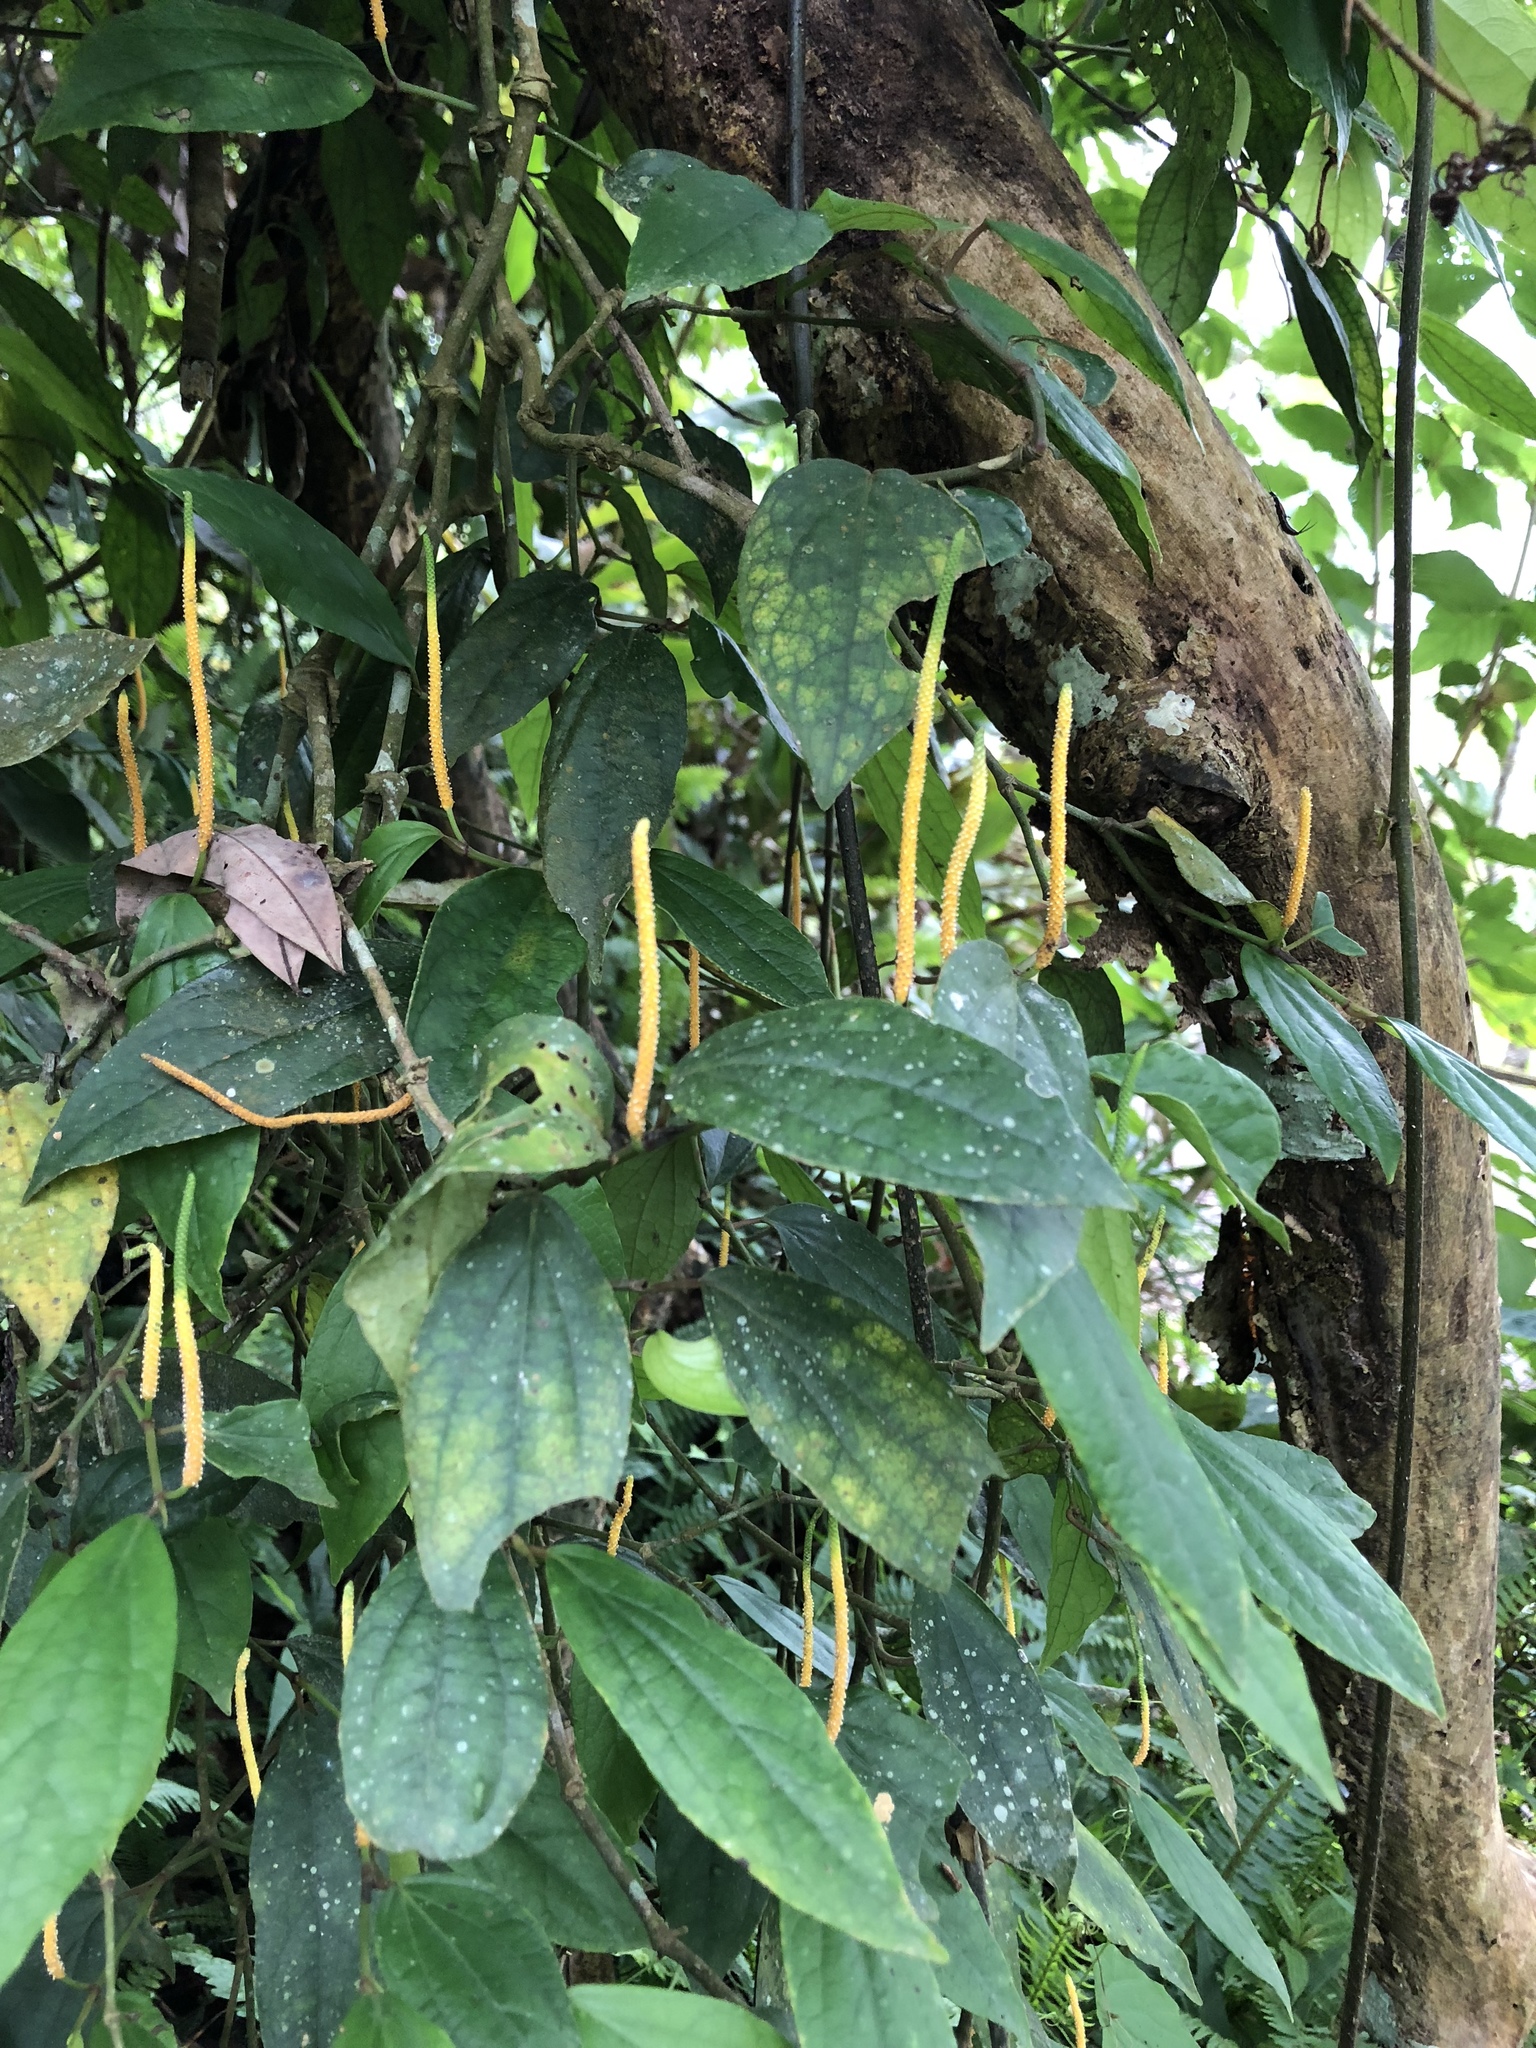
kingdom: Plantae
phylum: Tracheophyta
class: Magnoliopsida
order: Piperales
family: Piperaceae
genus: Piper
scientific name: Piper kadsura
